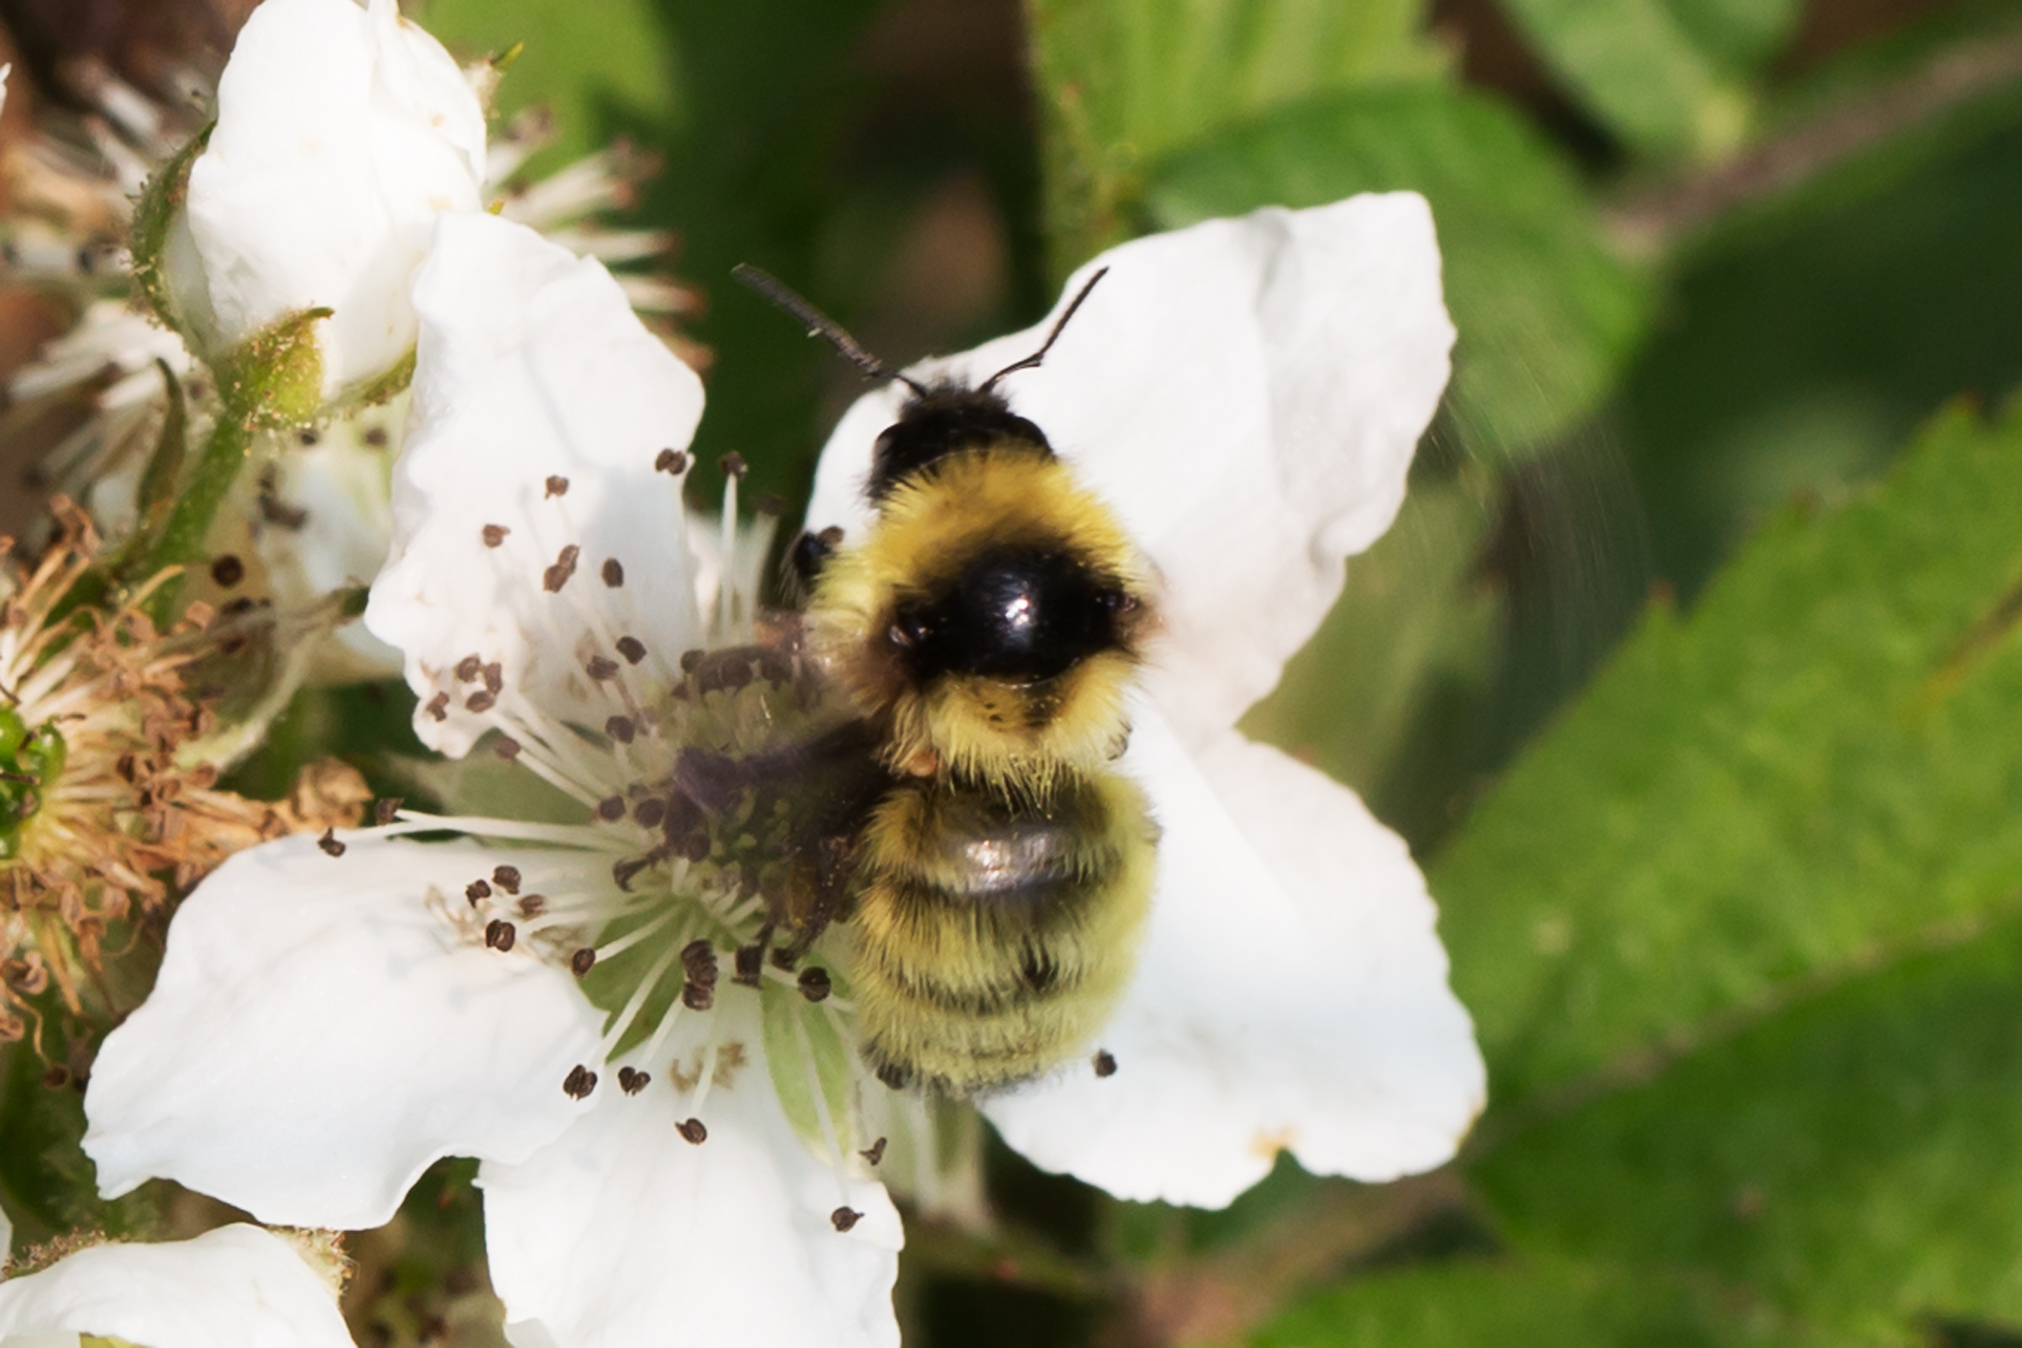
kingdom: Animalia
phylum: Arthropoda
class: Insecta
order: Hymenoptera
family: Apidae
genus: Bombus
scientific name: Bombus fervidus
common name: Yellow bumble bee
